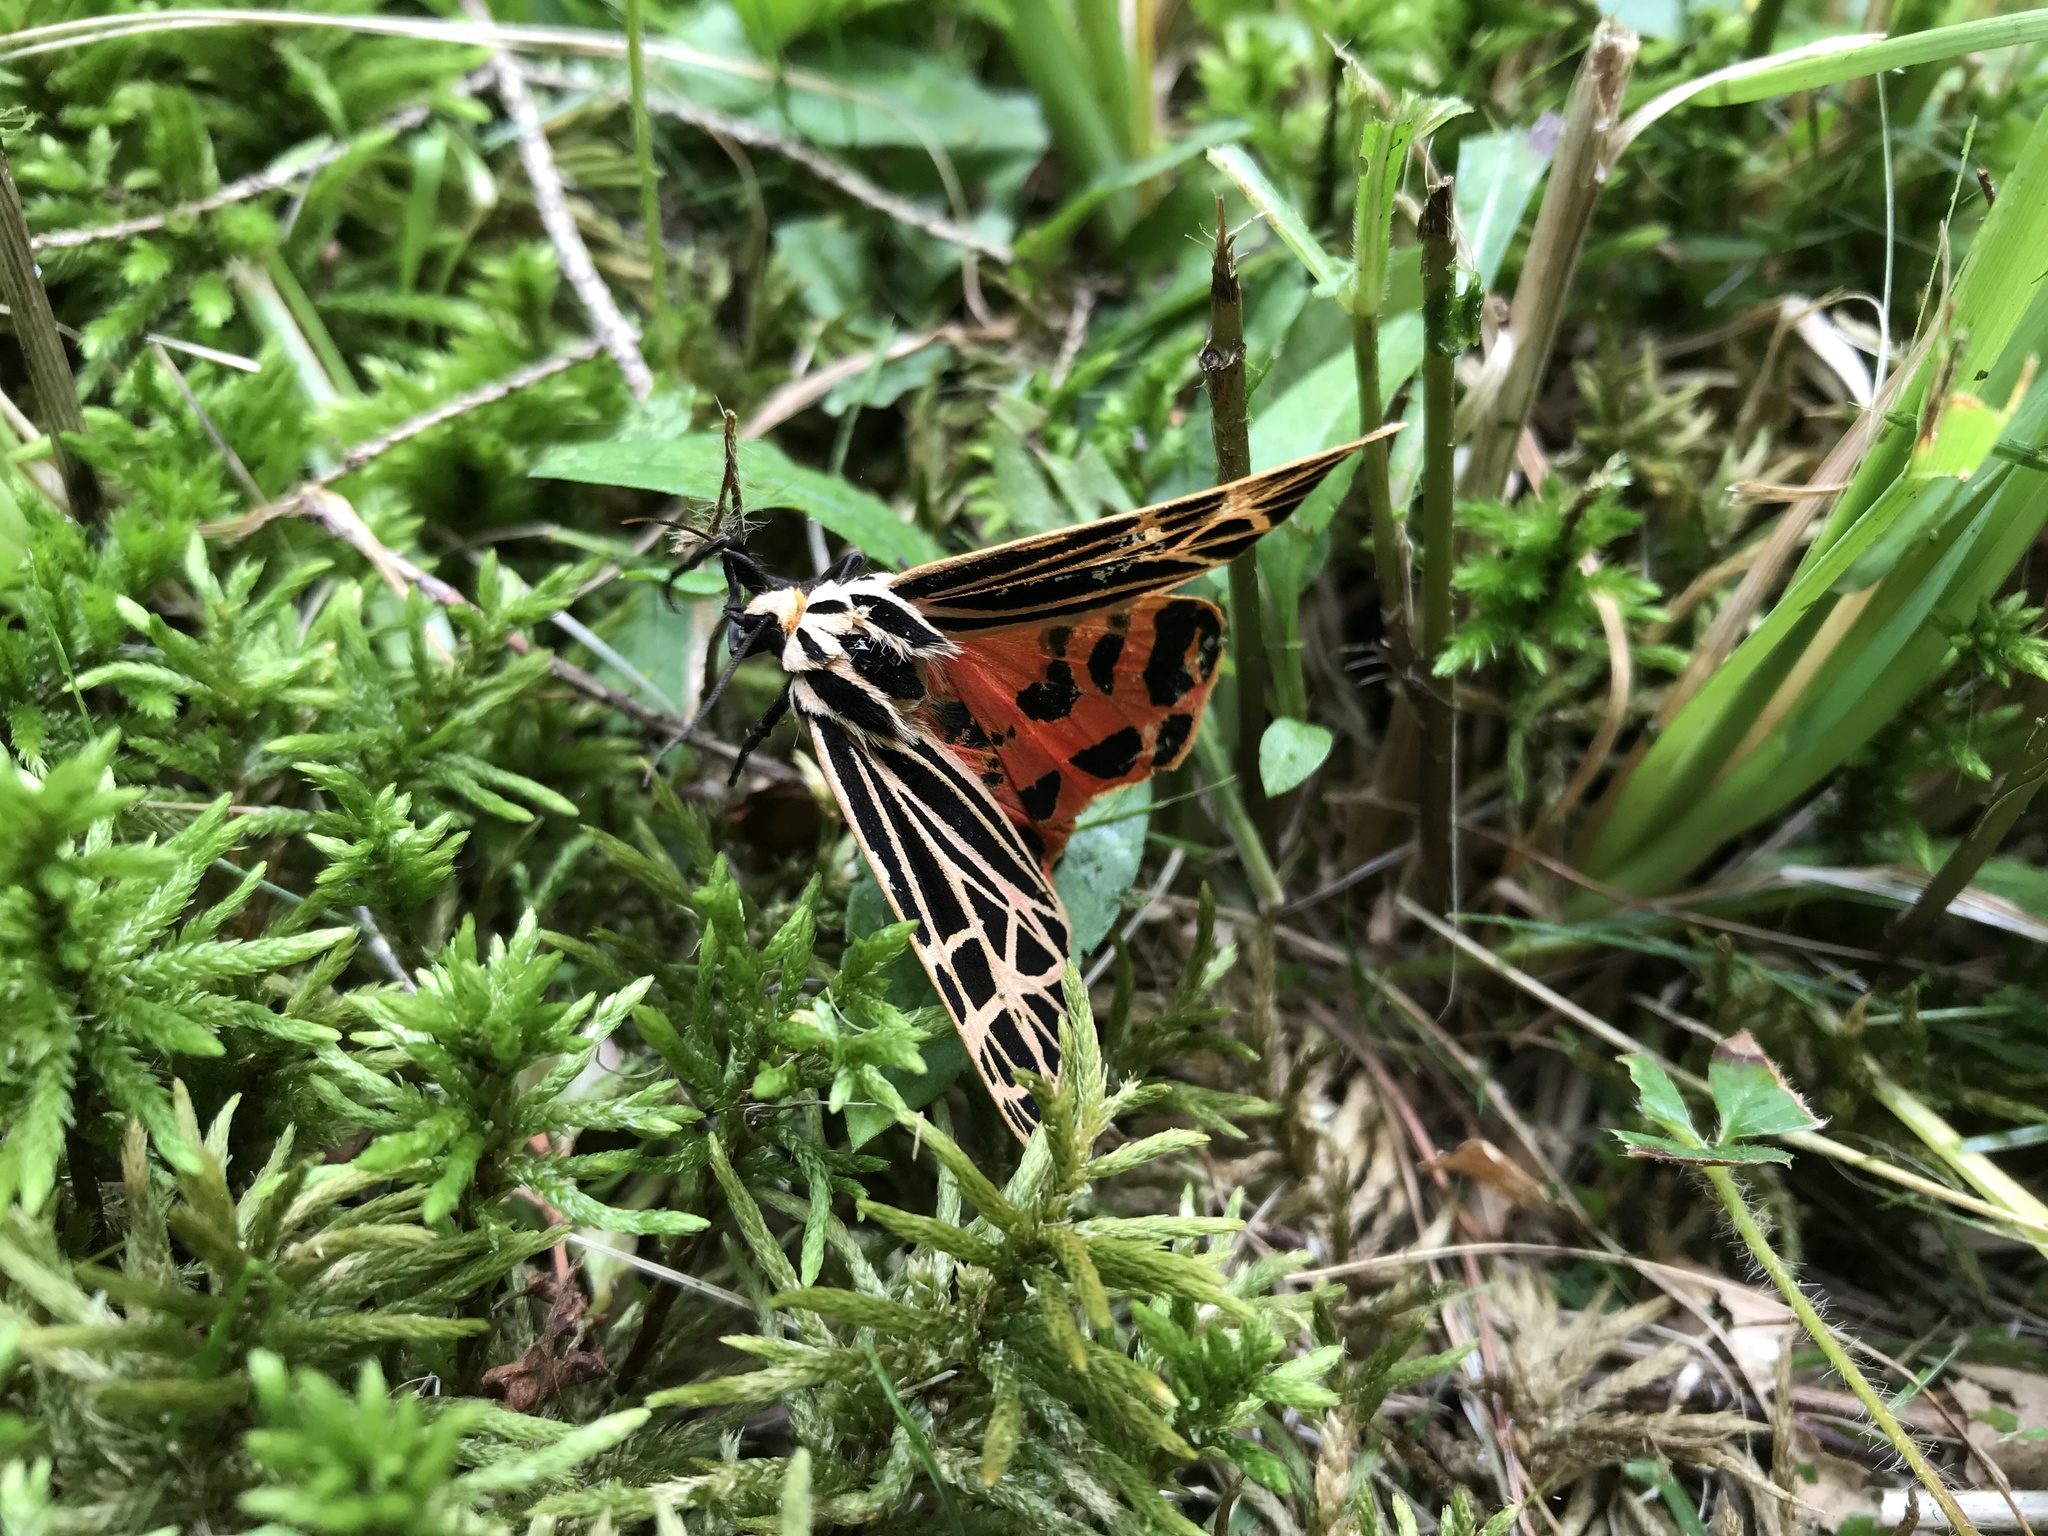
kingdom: Animalia
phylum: Arthropoda
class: Insecta
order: Lepidoptera
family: Erebidae
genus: Grammia
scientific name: Grammia virgo
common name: Virgin tiger moth
